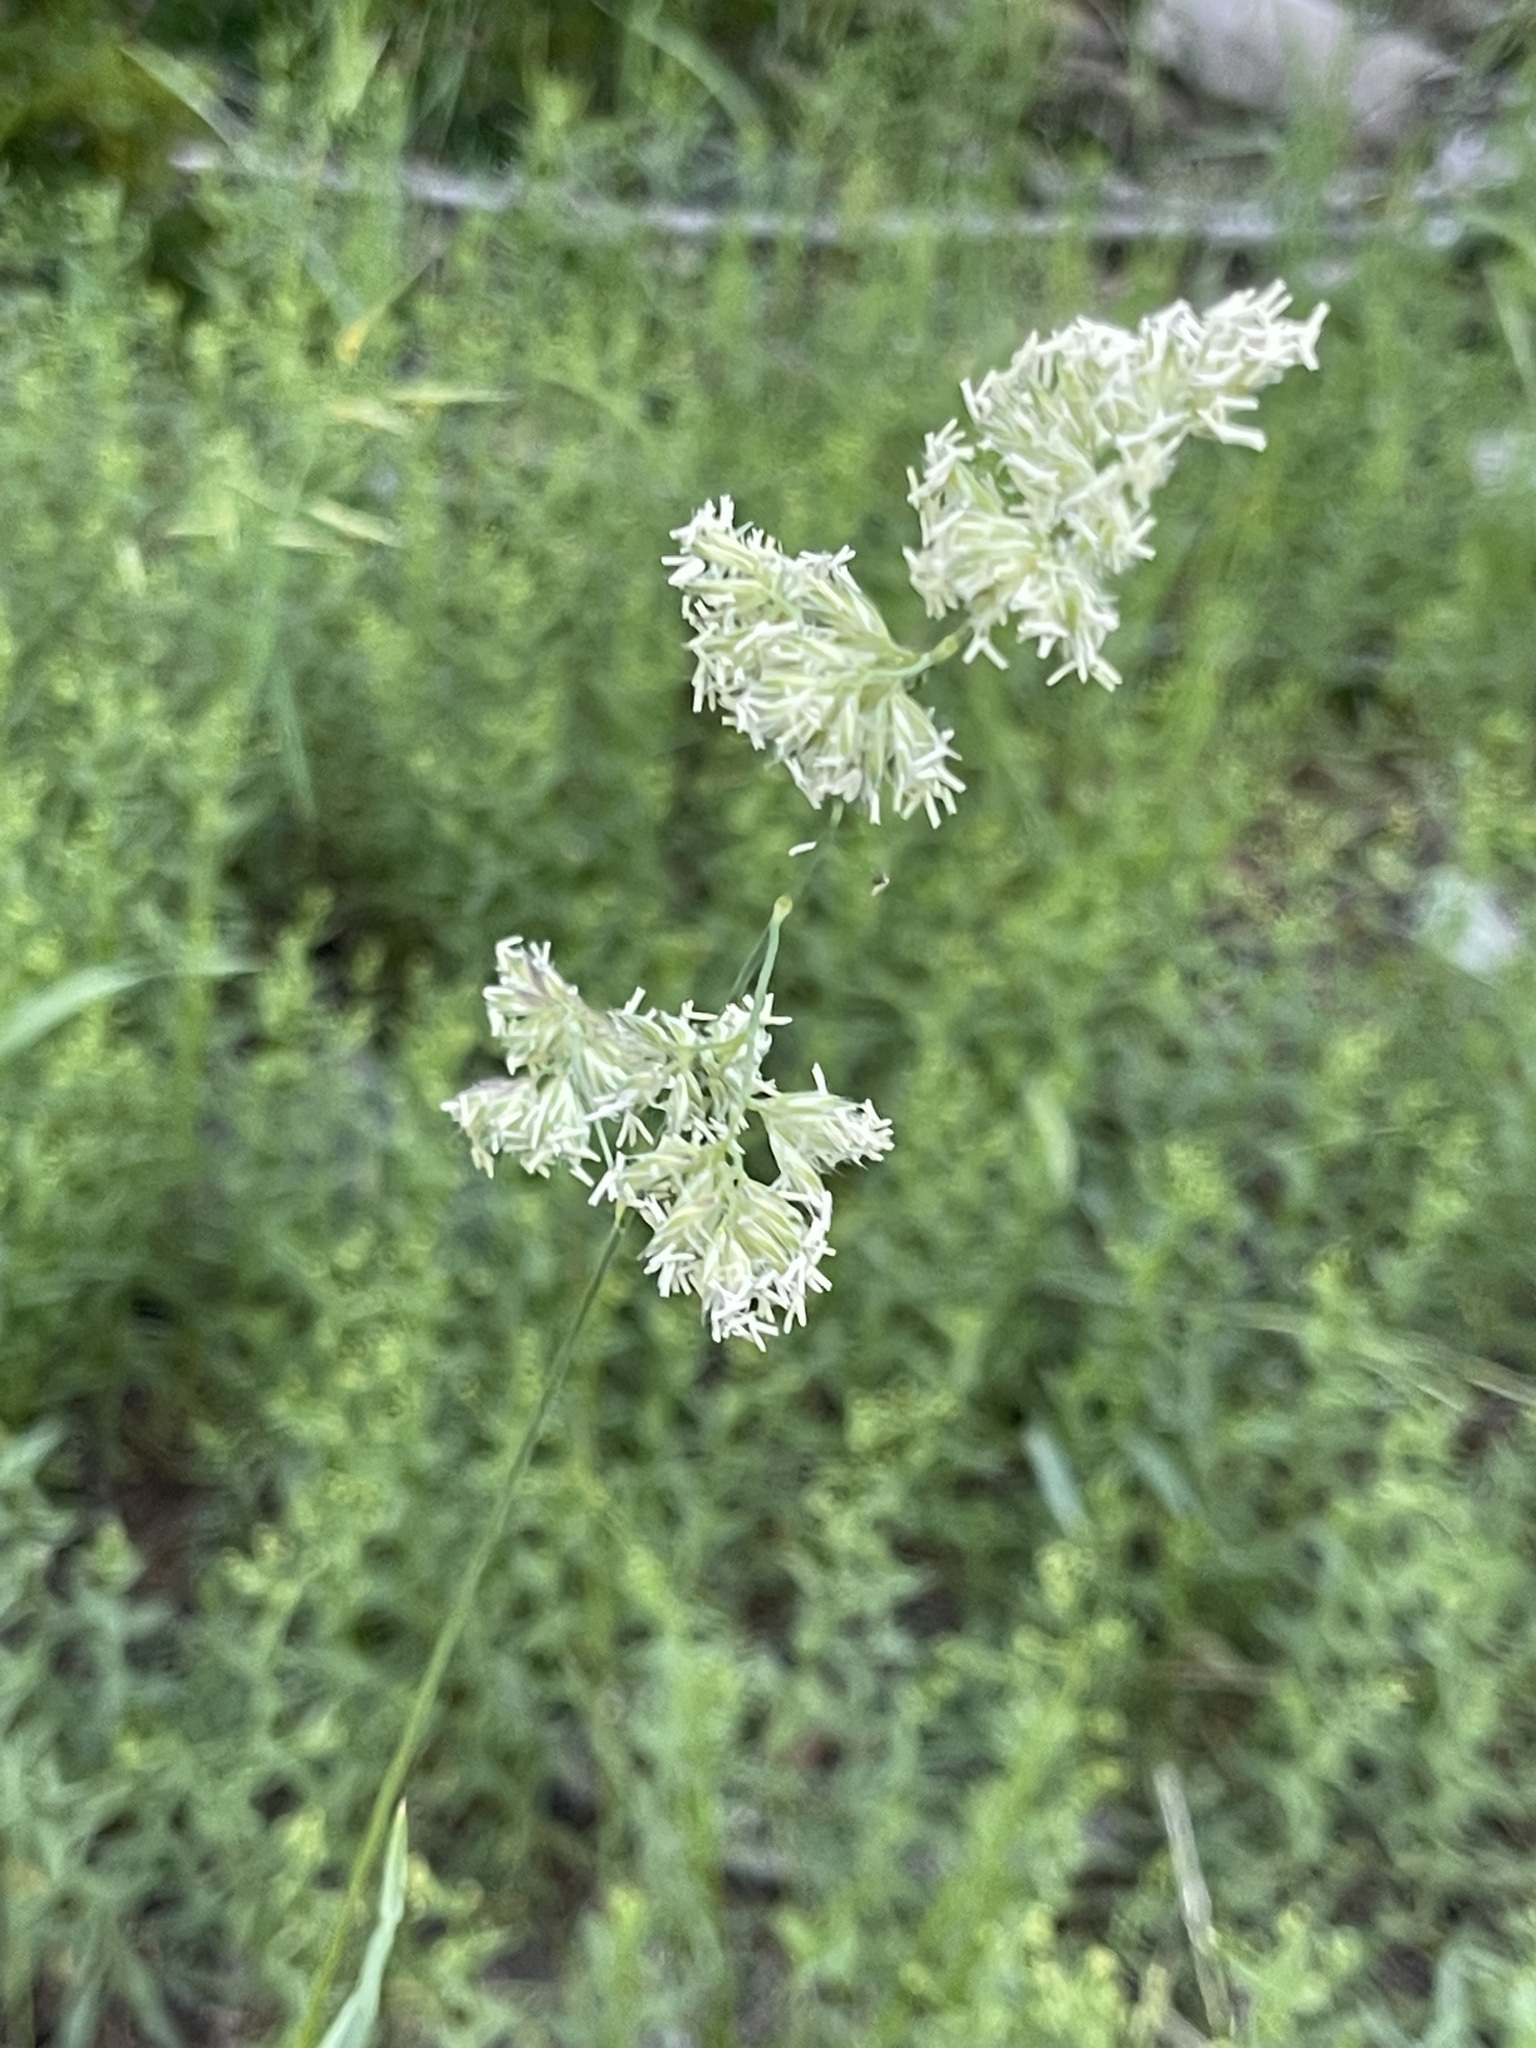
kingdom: Plantae
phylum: Tracheophyta
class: Liliopsida
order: Poales
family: Poaceae
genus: Dactylis
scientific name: Dactylis glomerata
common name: Orchardgrass
